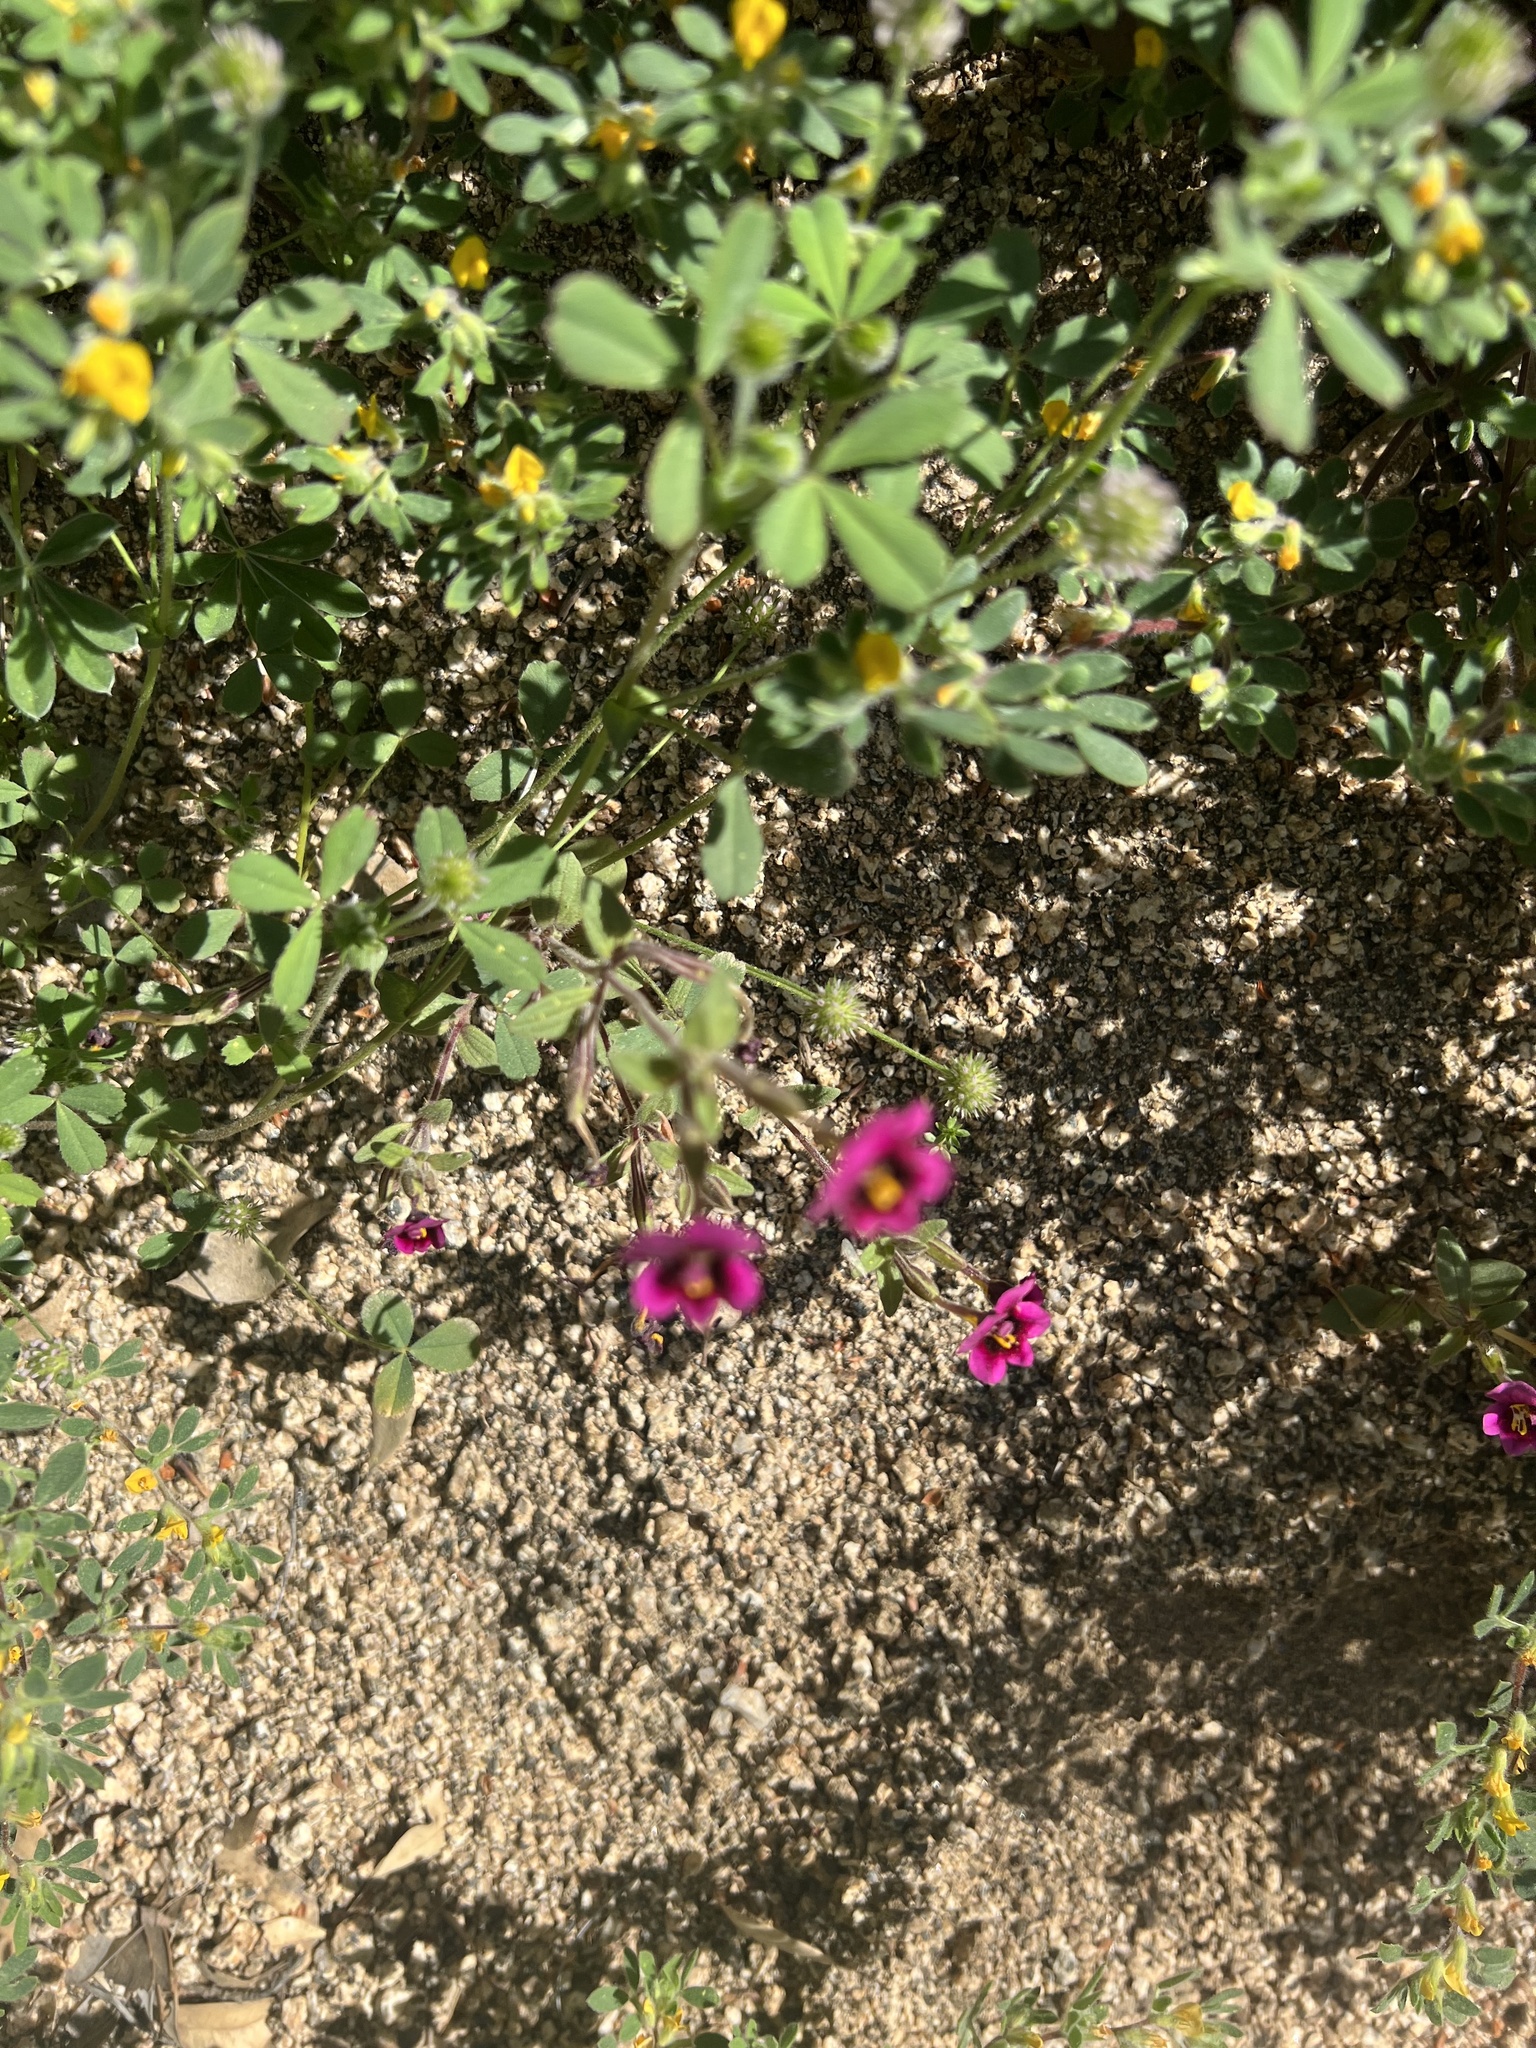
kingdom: Plantae
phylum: Tracheophyta
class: Magnoliopsida
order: Lamiales
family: Phrymaceae
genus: Diplacus
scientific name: Diplacus kelloggii
